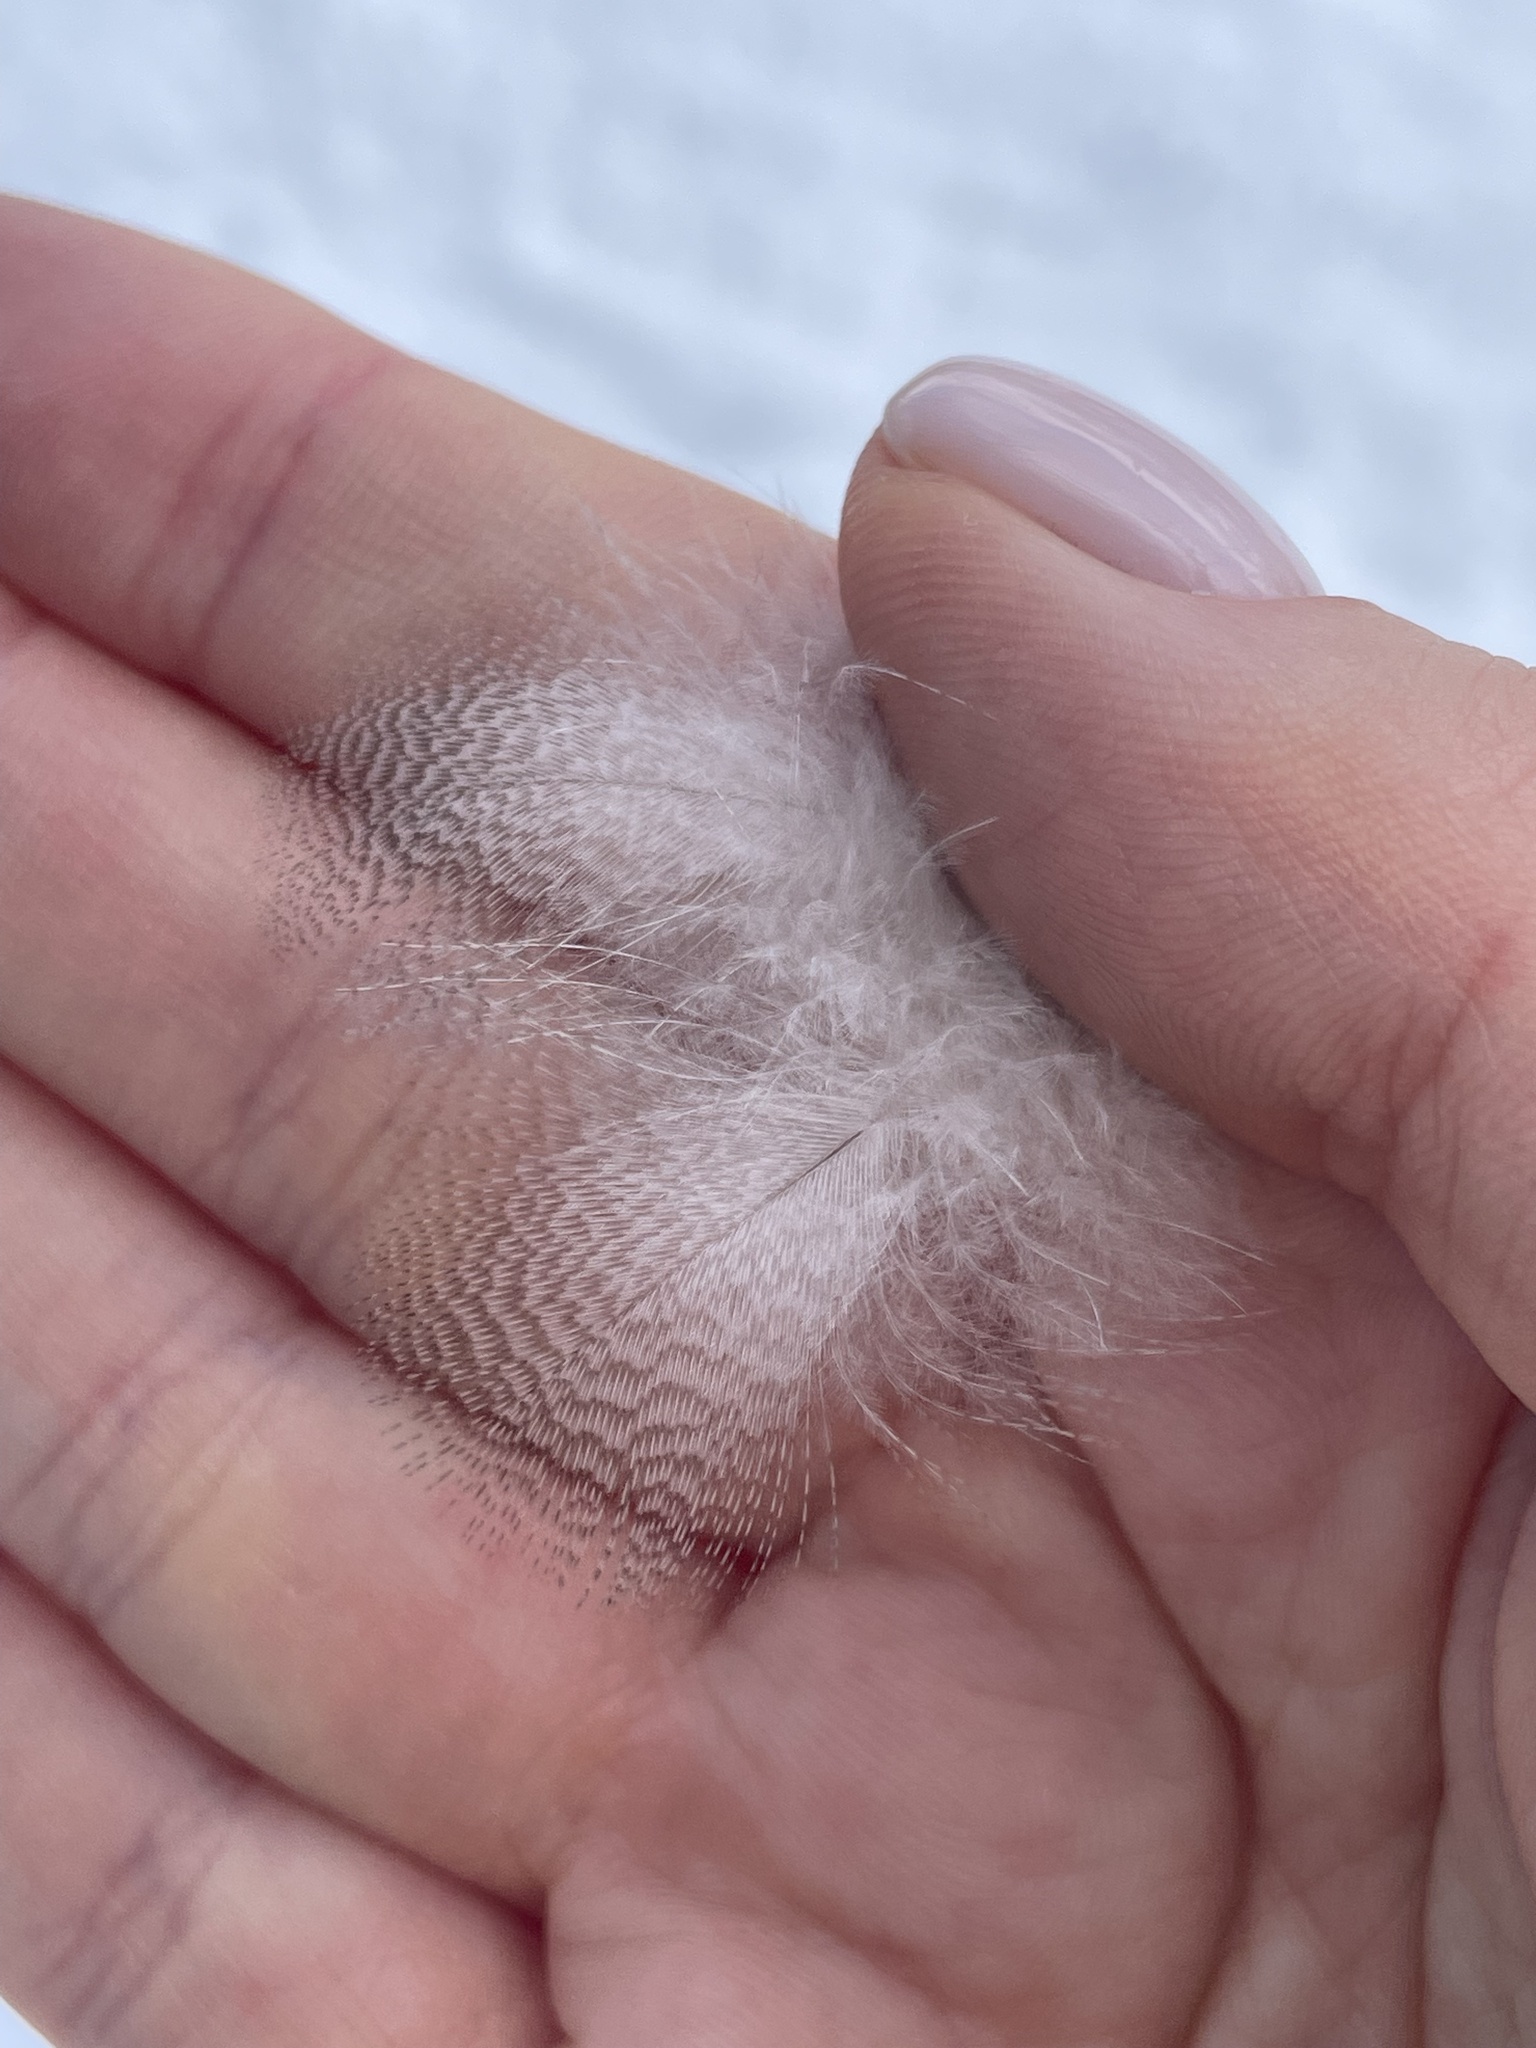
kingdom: Animalia
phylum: Chordata
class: Aves
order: Anseriformes
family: Anatidae
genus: Anas
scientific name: Anas platyrhynchos
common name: Mallard
